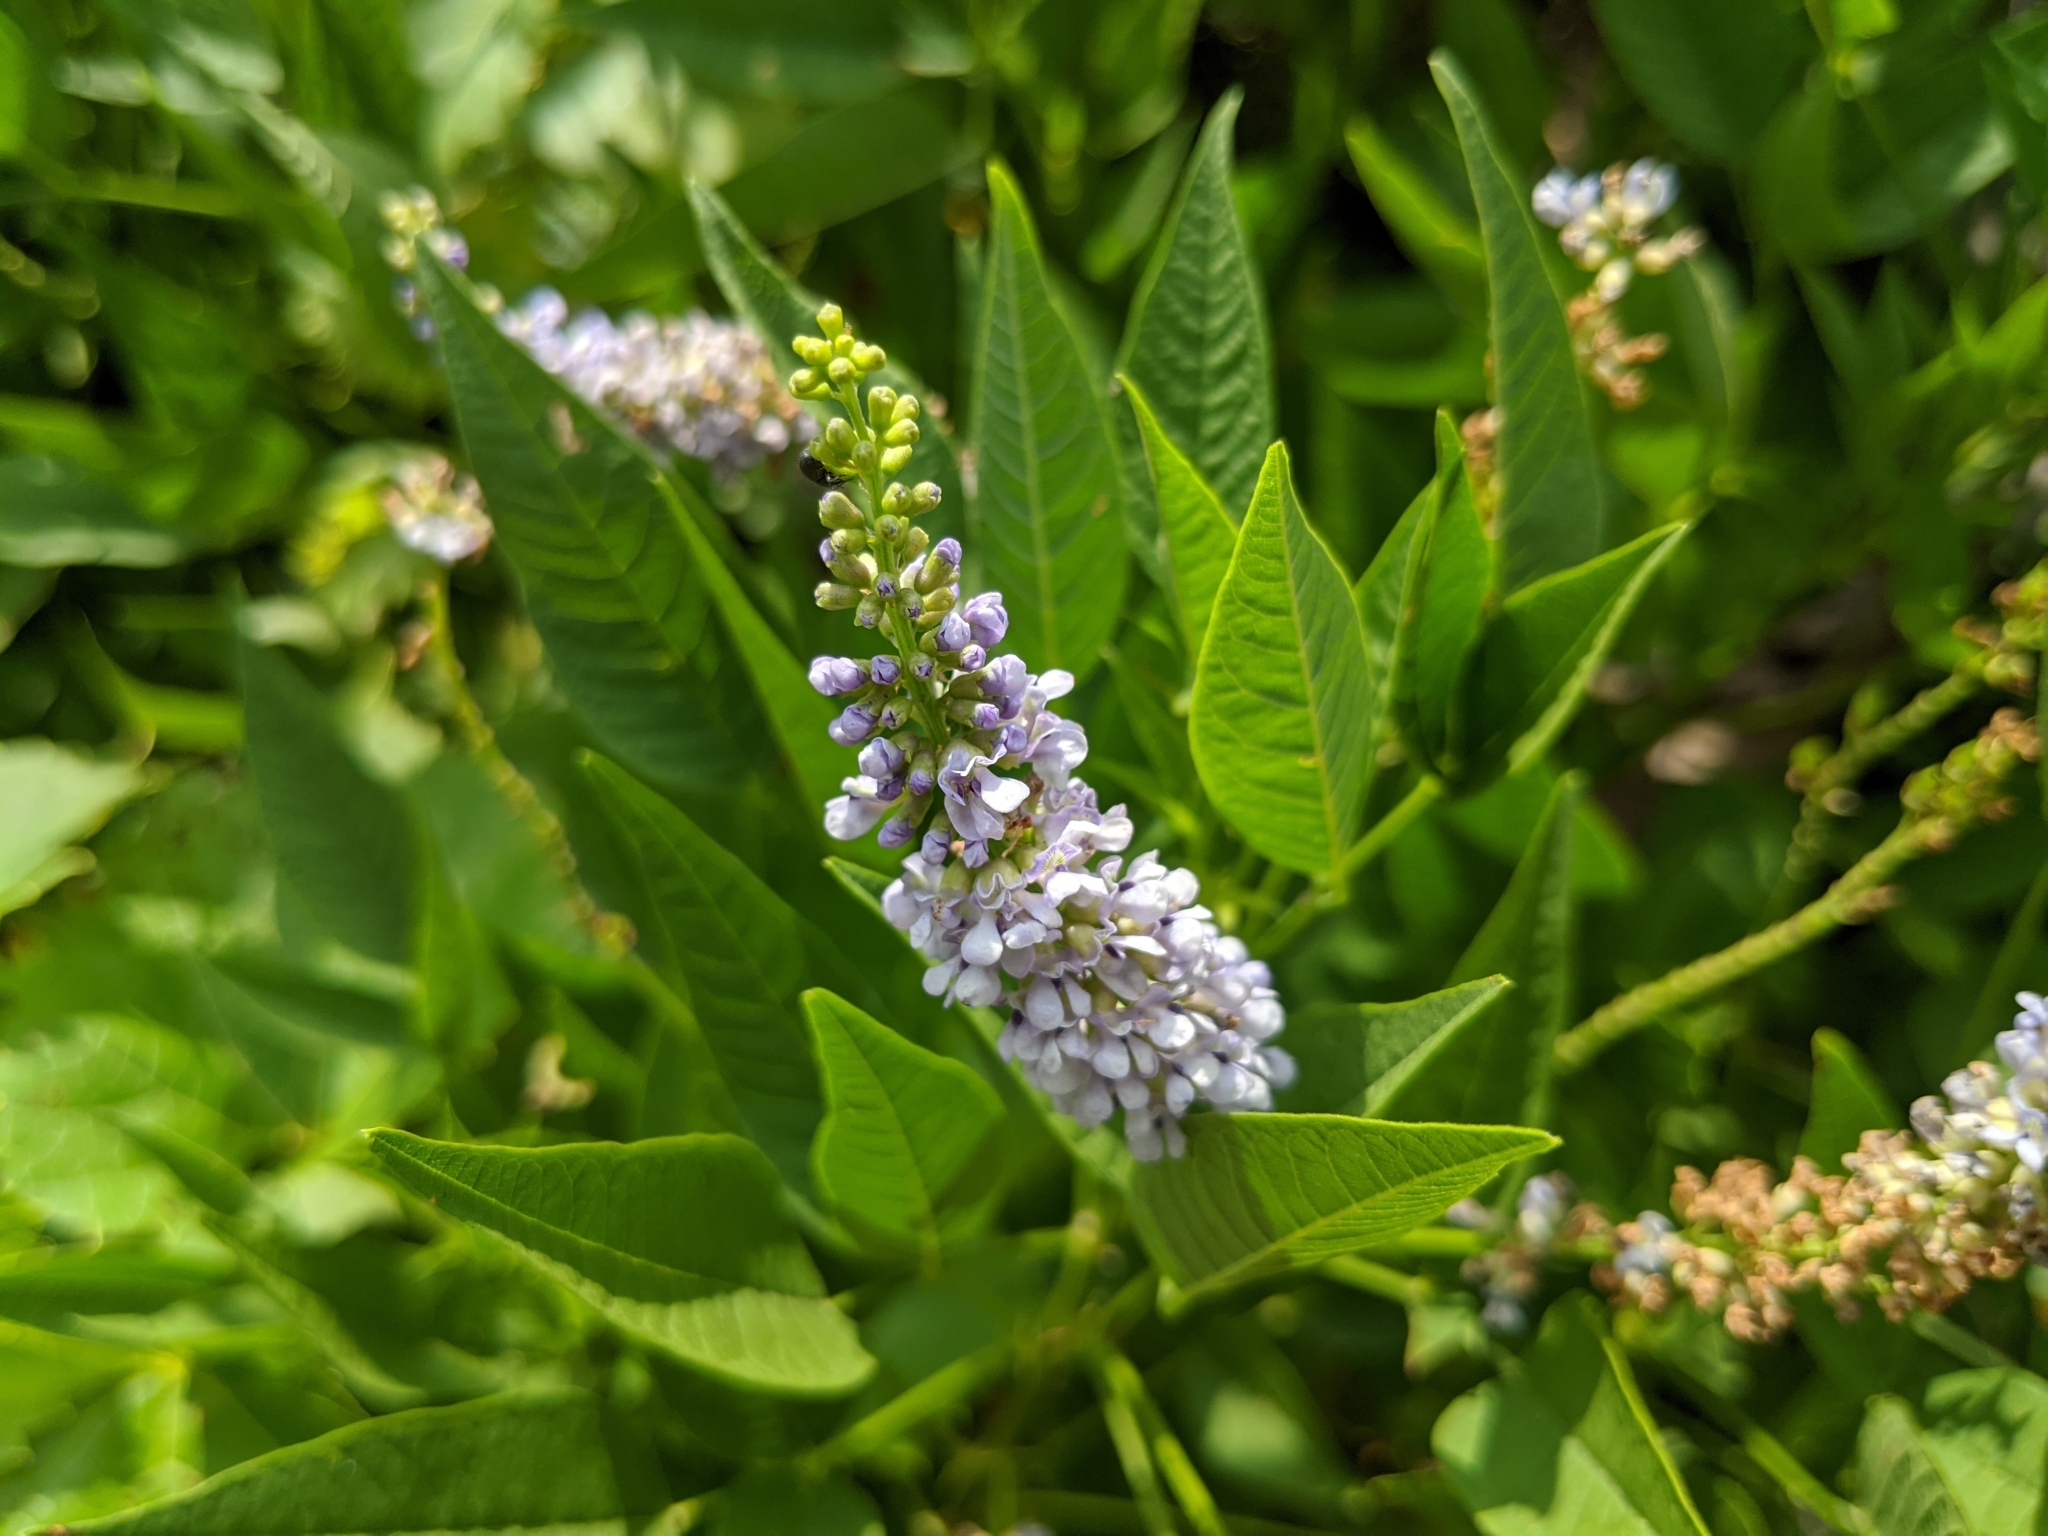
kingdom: Plantae
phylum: Tracheophyta
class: Magnoliopsida
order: Fabales
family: Fabaceae
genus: Orbexilum
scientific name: Orbexilum onobrychis
